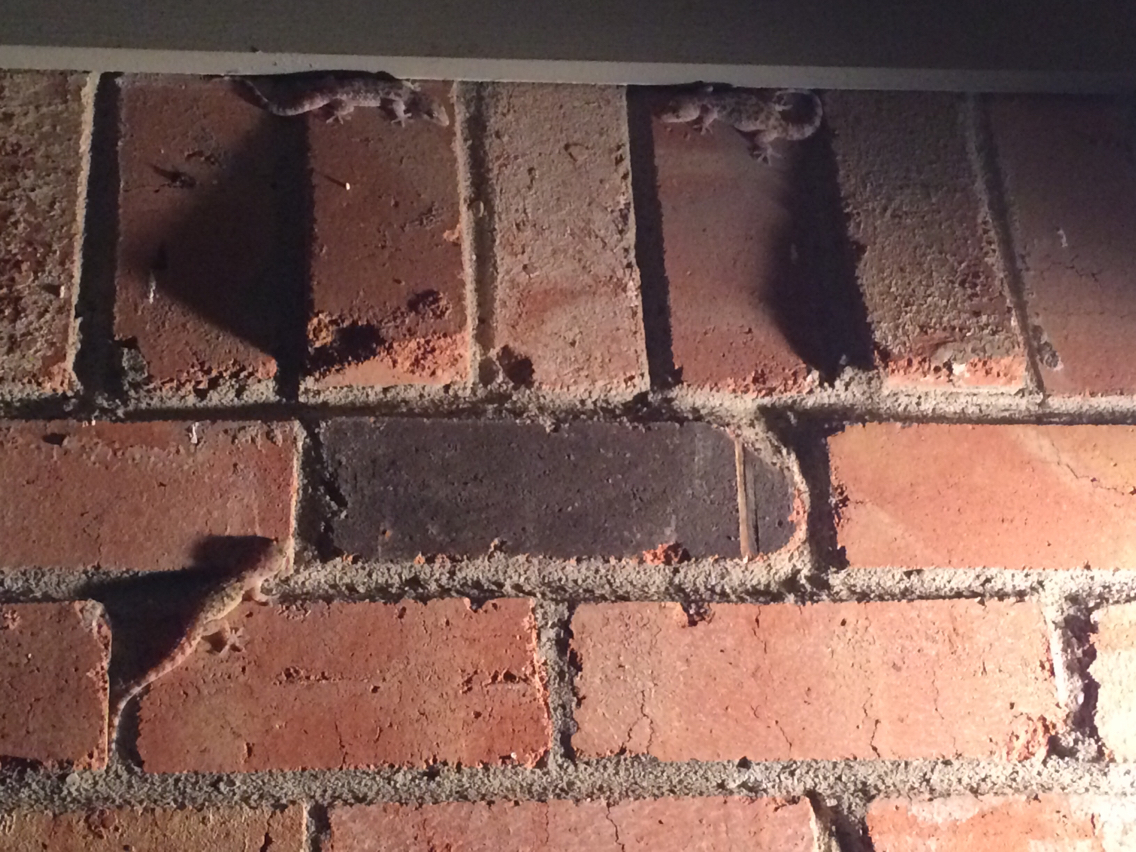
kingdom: Animalia
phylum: Chordata
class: Squamata
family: Gekkonidae
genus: Hemidactylus
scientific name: Hemidactylus turcicus
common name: Turkish gecko
